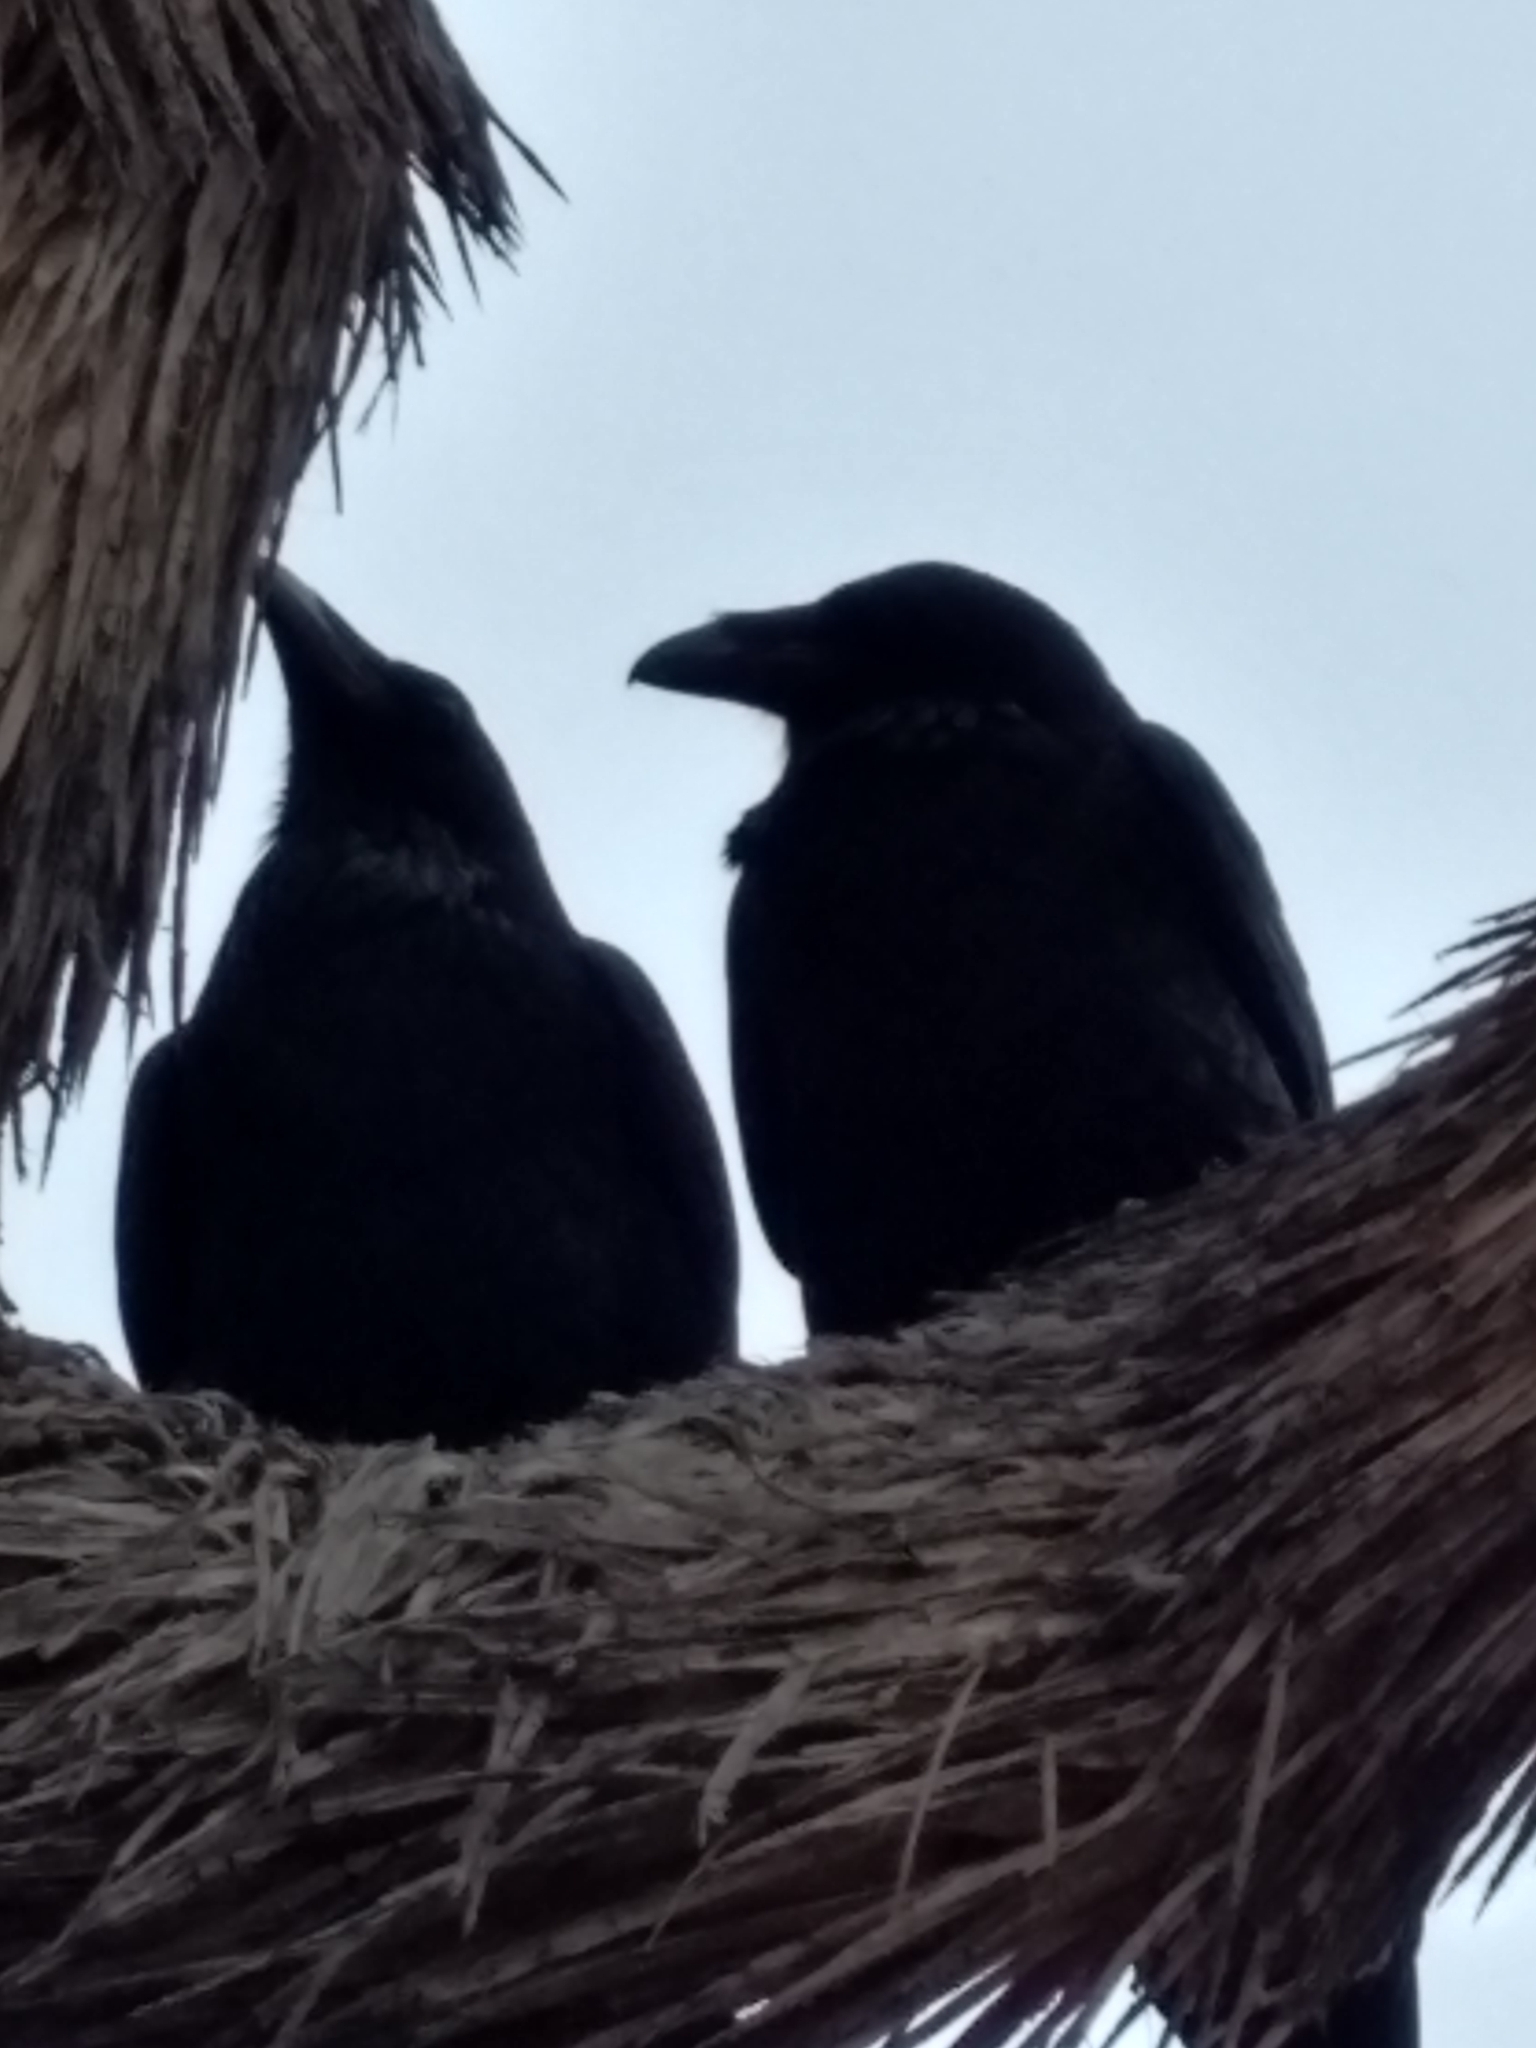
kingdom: Animalia
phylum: Chordata
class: Aves
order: Passeriformes
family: Corvidae
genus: Corvus
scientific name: Corvus corax
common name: Common raven
